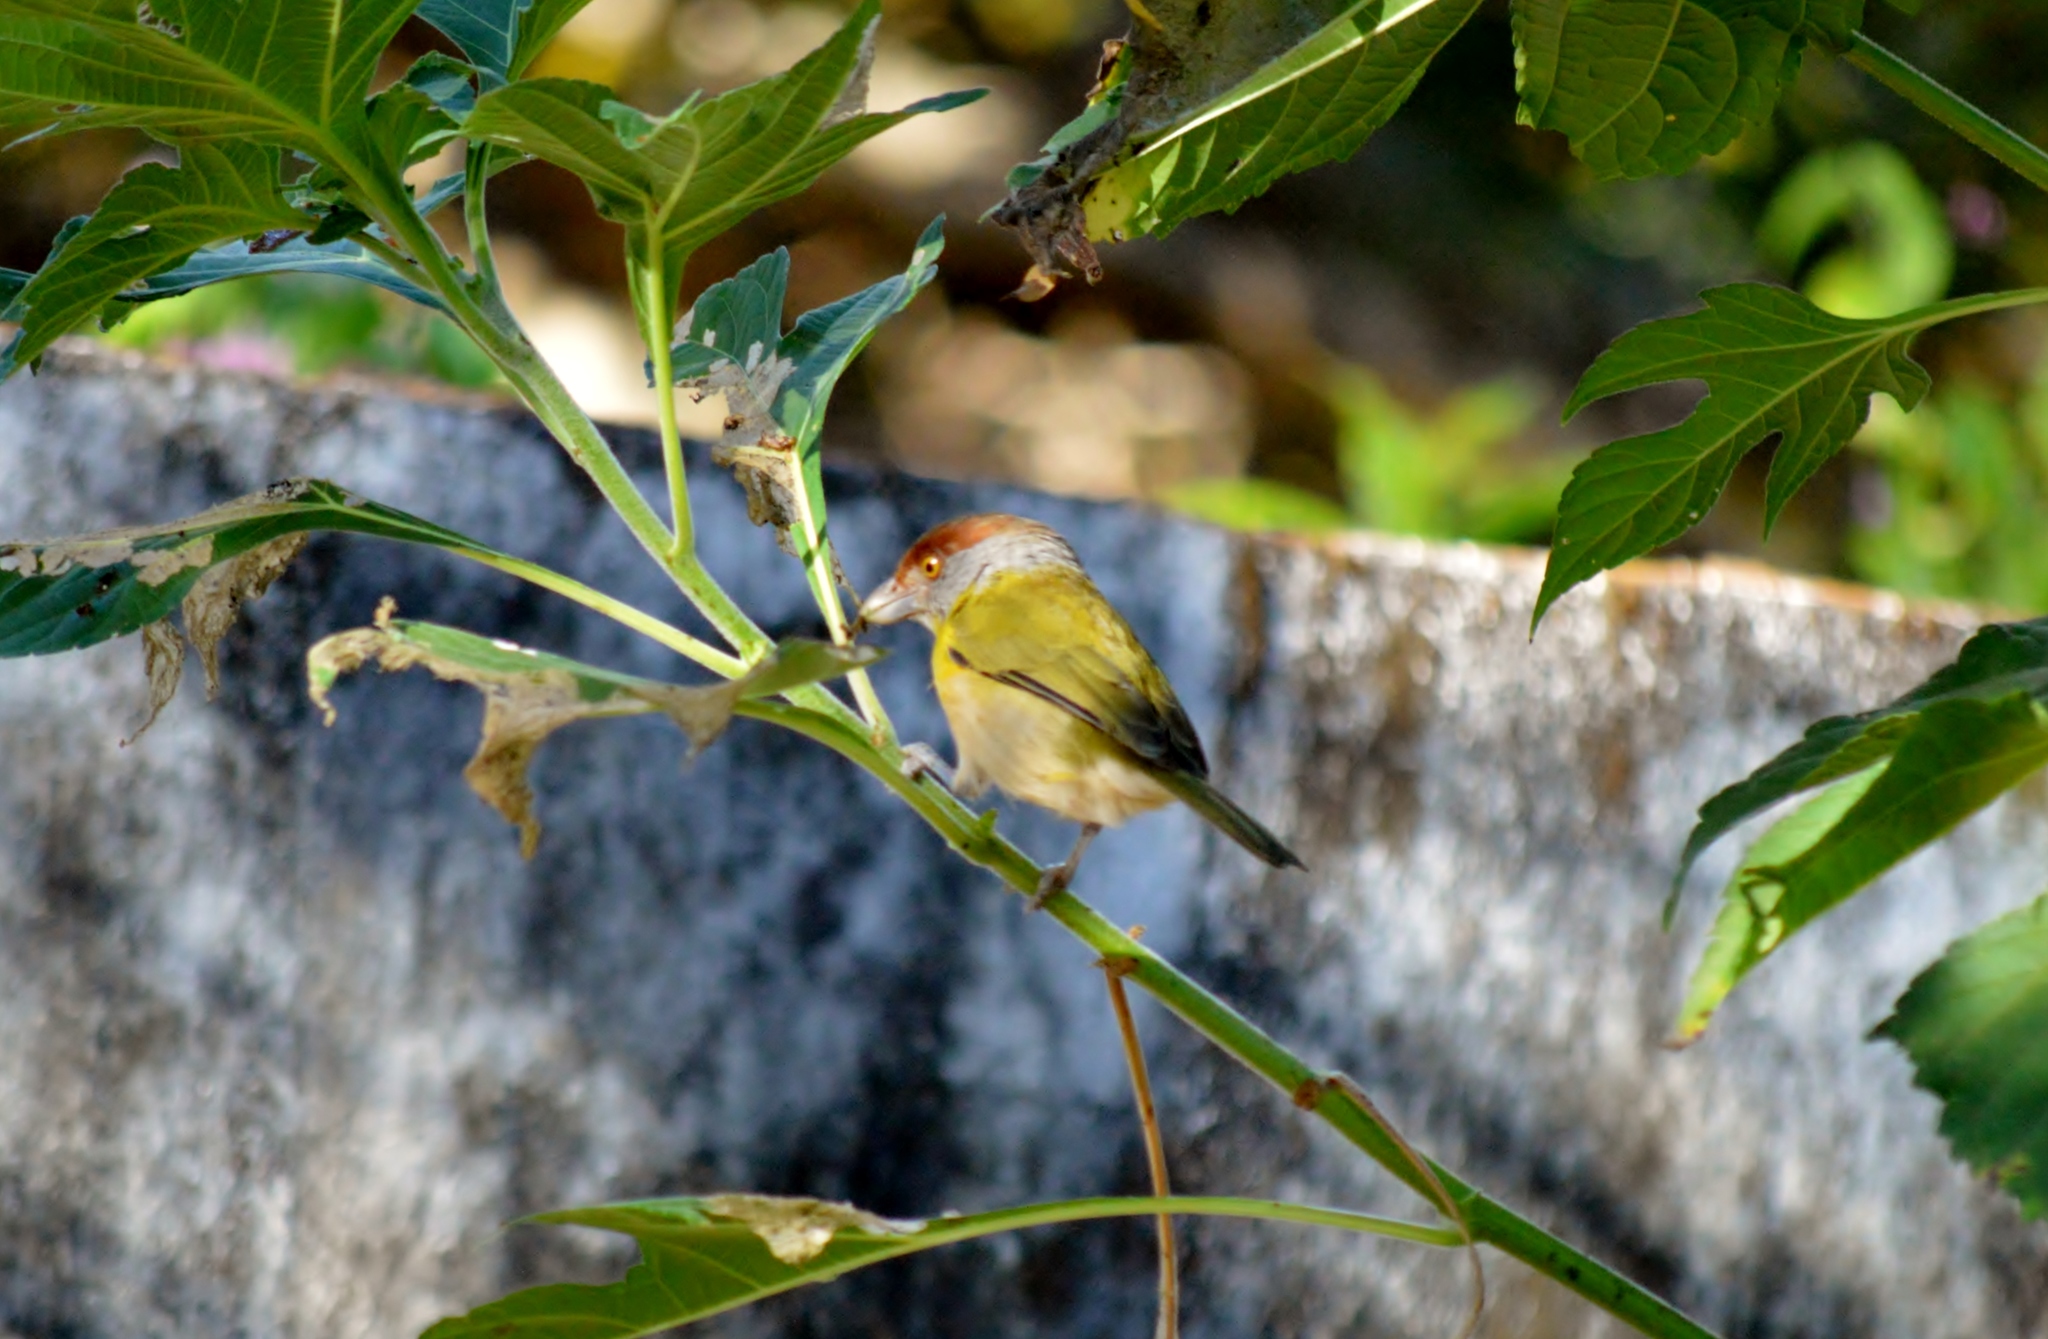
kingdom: Animalia
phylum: Chordata
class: Aves
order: Passeriformes
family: Vireonidae
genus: Cyclarhis
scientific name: Cyclarhis gujanensis
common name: Rufous-browed peppershrike
